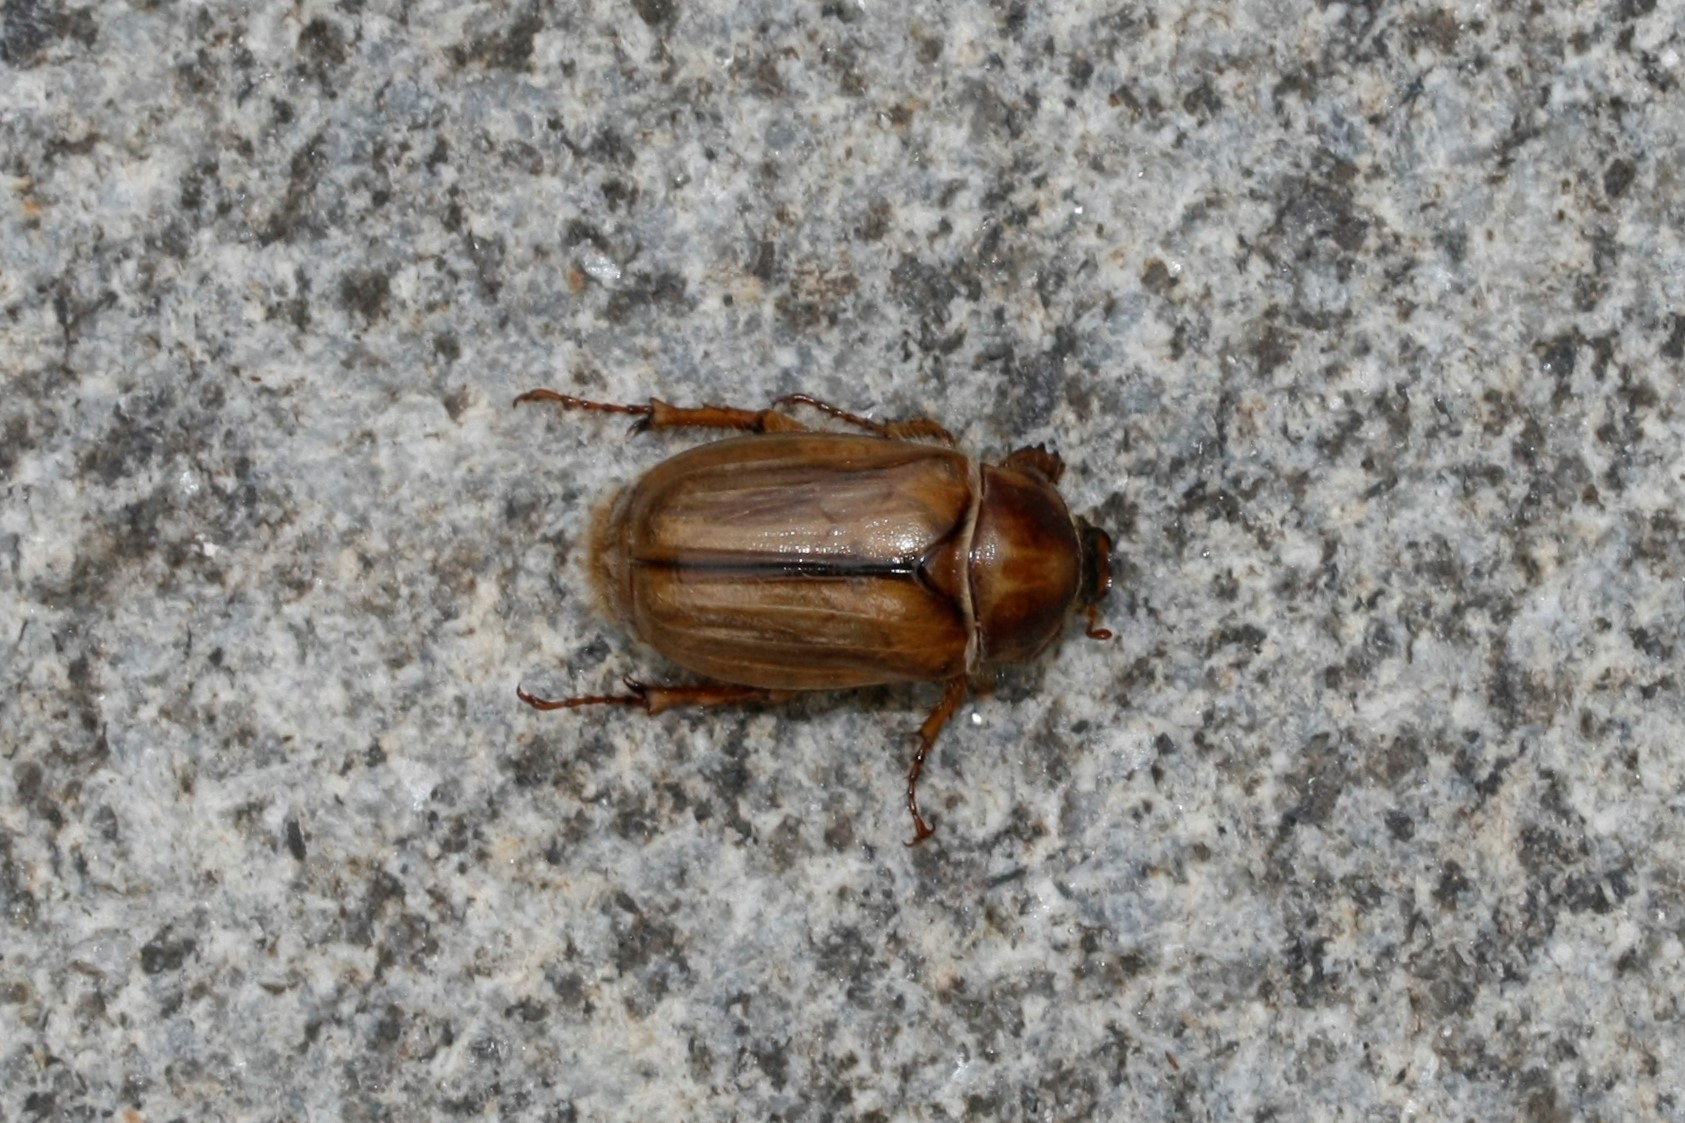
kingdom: Animalia
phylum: Arthropoda
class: Insecta
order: Coleoptera
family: Scarabaeidae
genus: Amphimallon
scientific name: Amphimallon solstitiale
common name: Summer chafer
